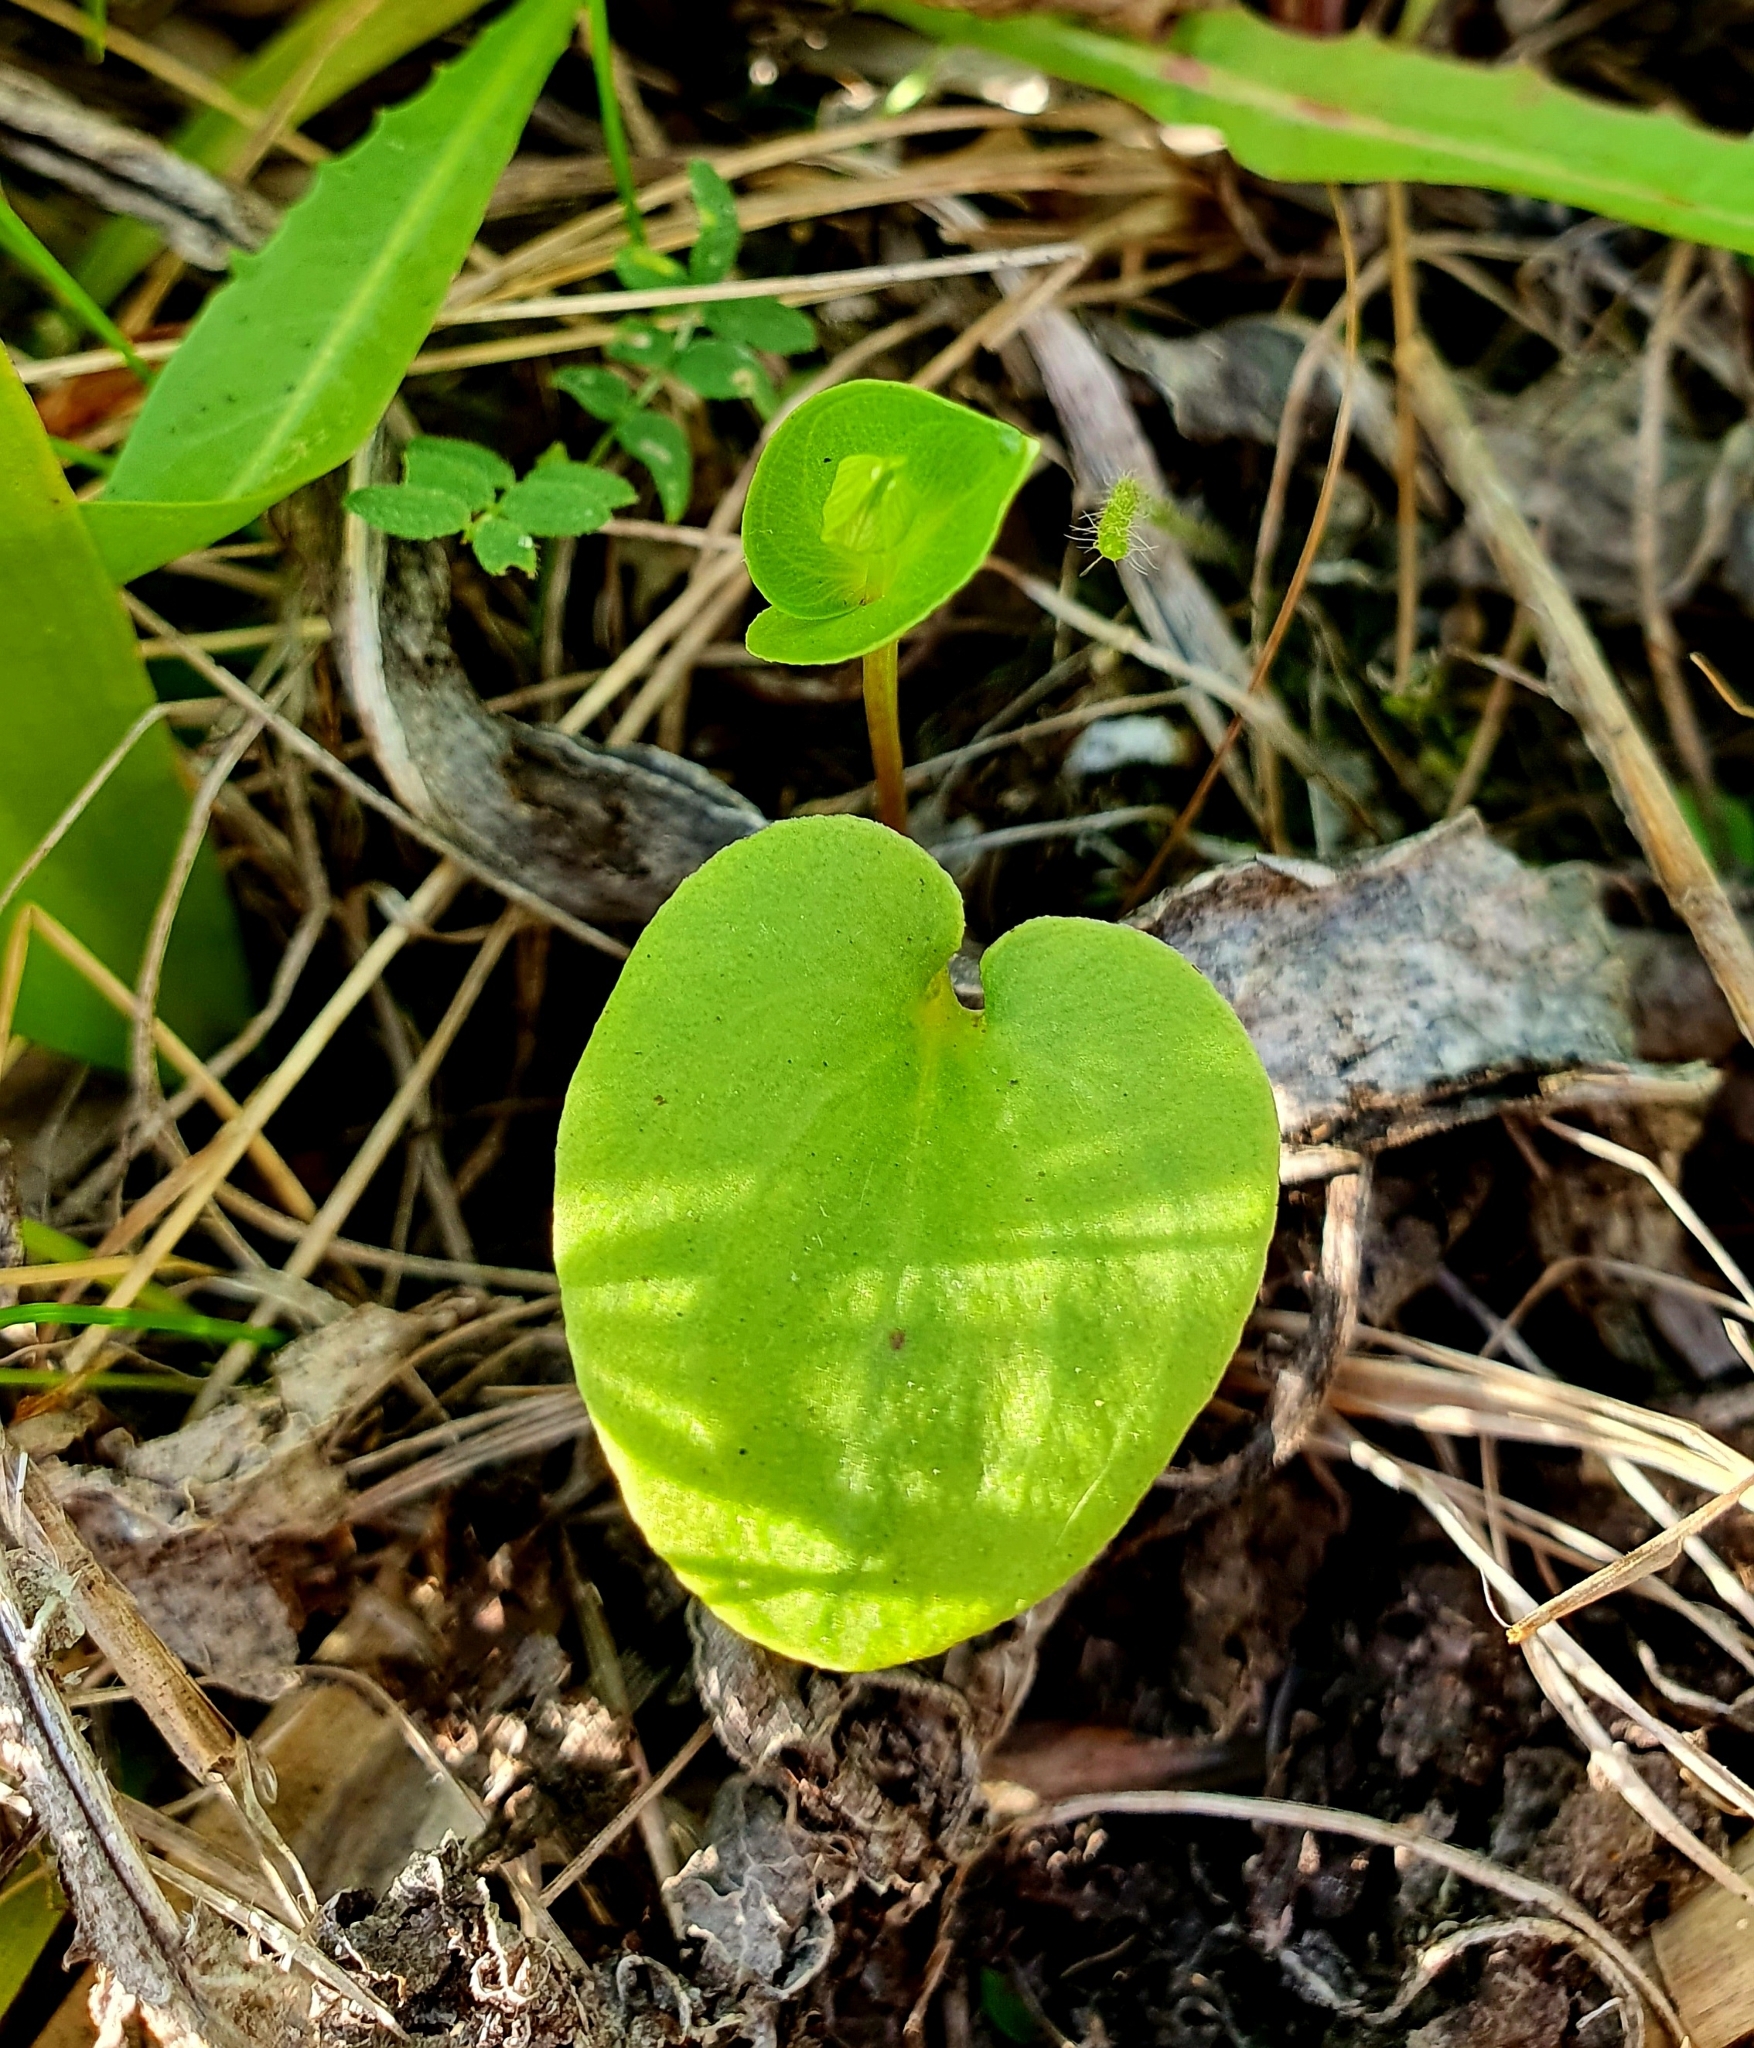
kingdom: Plantae
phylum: Tracheophyta
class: Magnoliopsida
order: Celastrales
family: Parnassiaceae
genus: Parnassia
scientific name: Parnassia palustris
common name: Grass-of-parnassus
